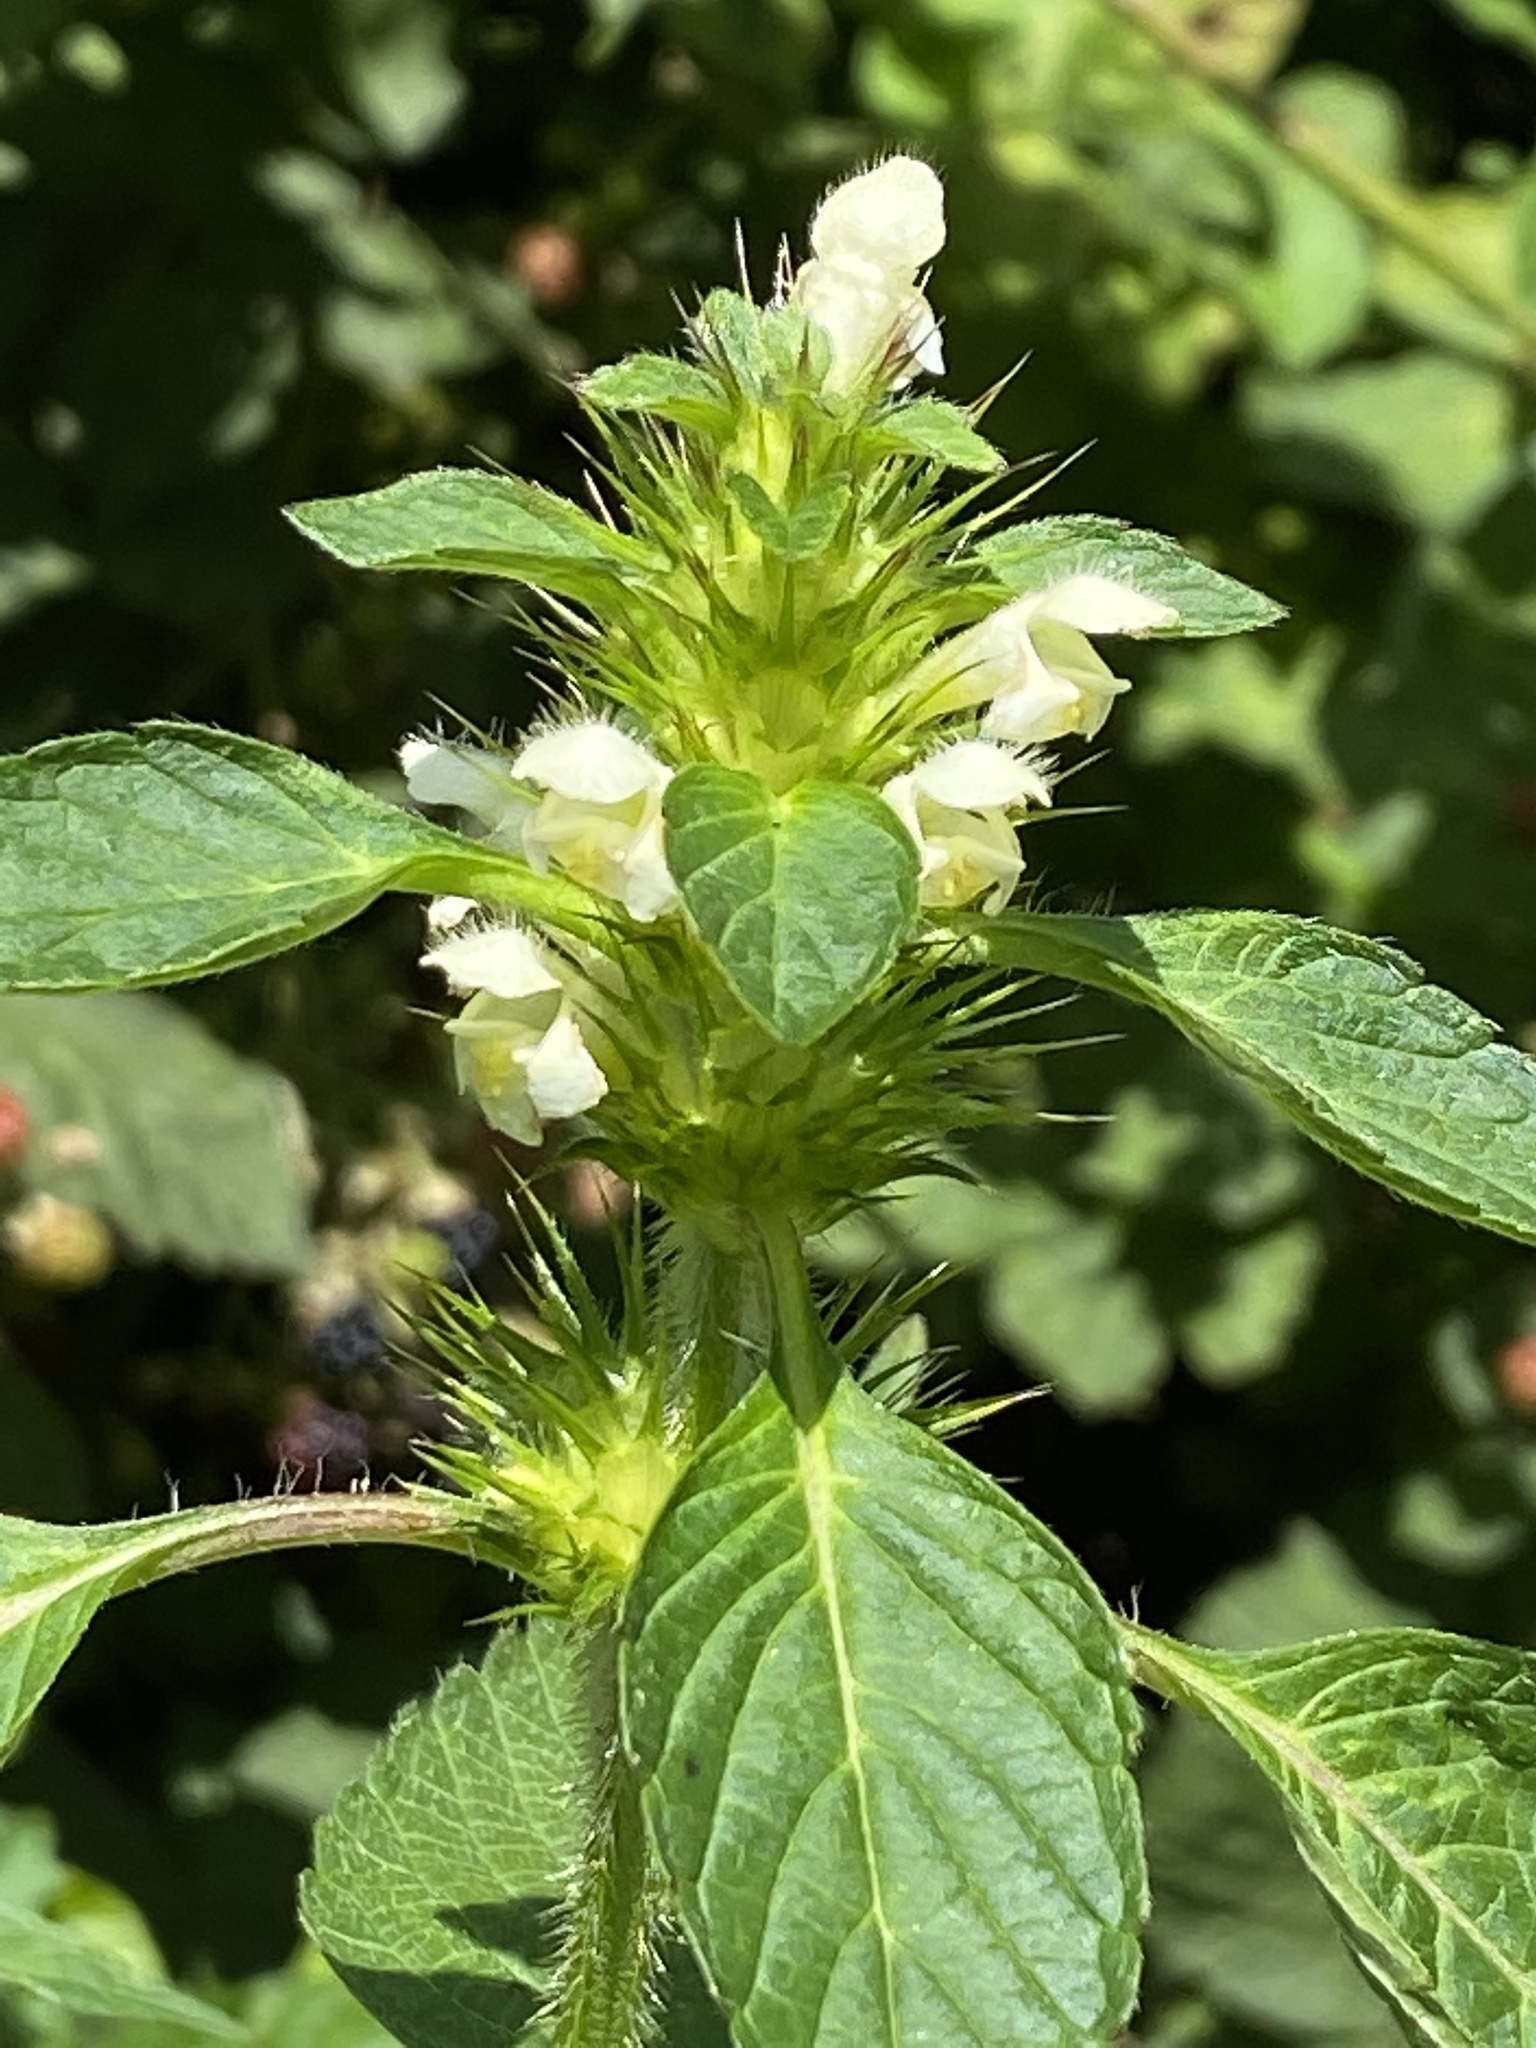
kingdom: Plantae
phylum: Tracheophyta
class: Magnoliopsida
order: Lamiales
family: Lamiaceae
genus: Galeopsis
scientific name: Galeopsis tetrahit
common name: Common hemp-nettle
